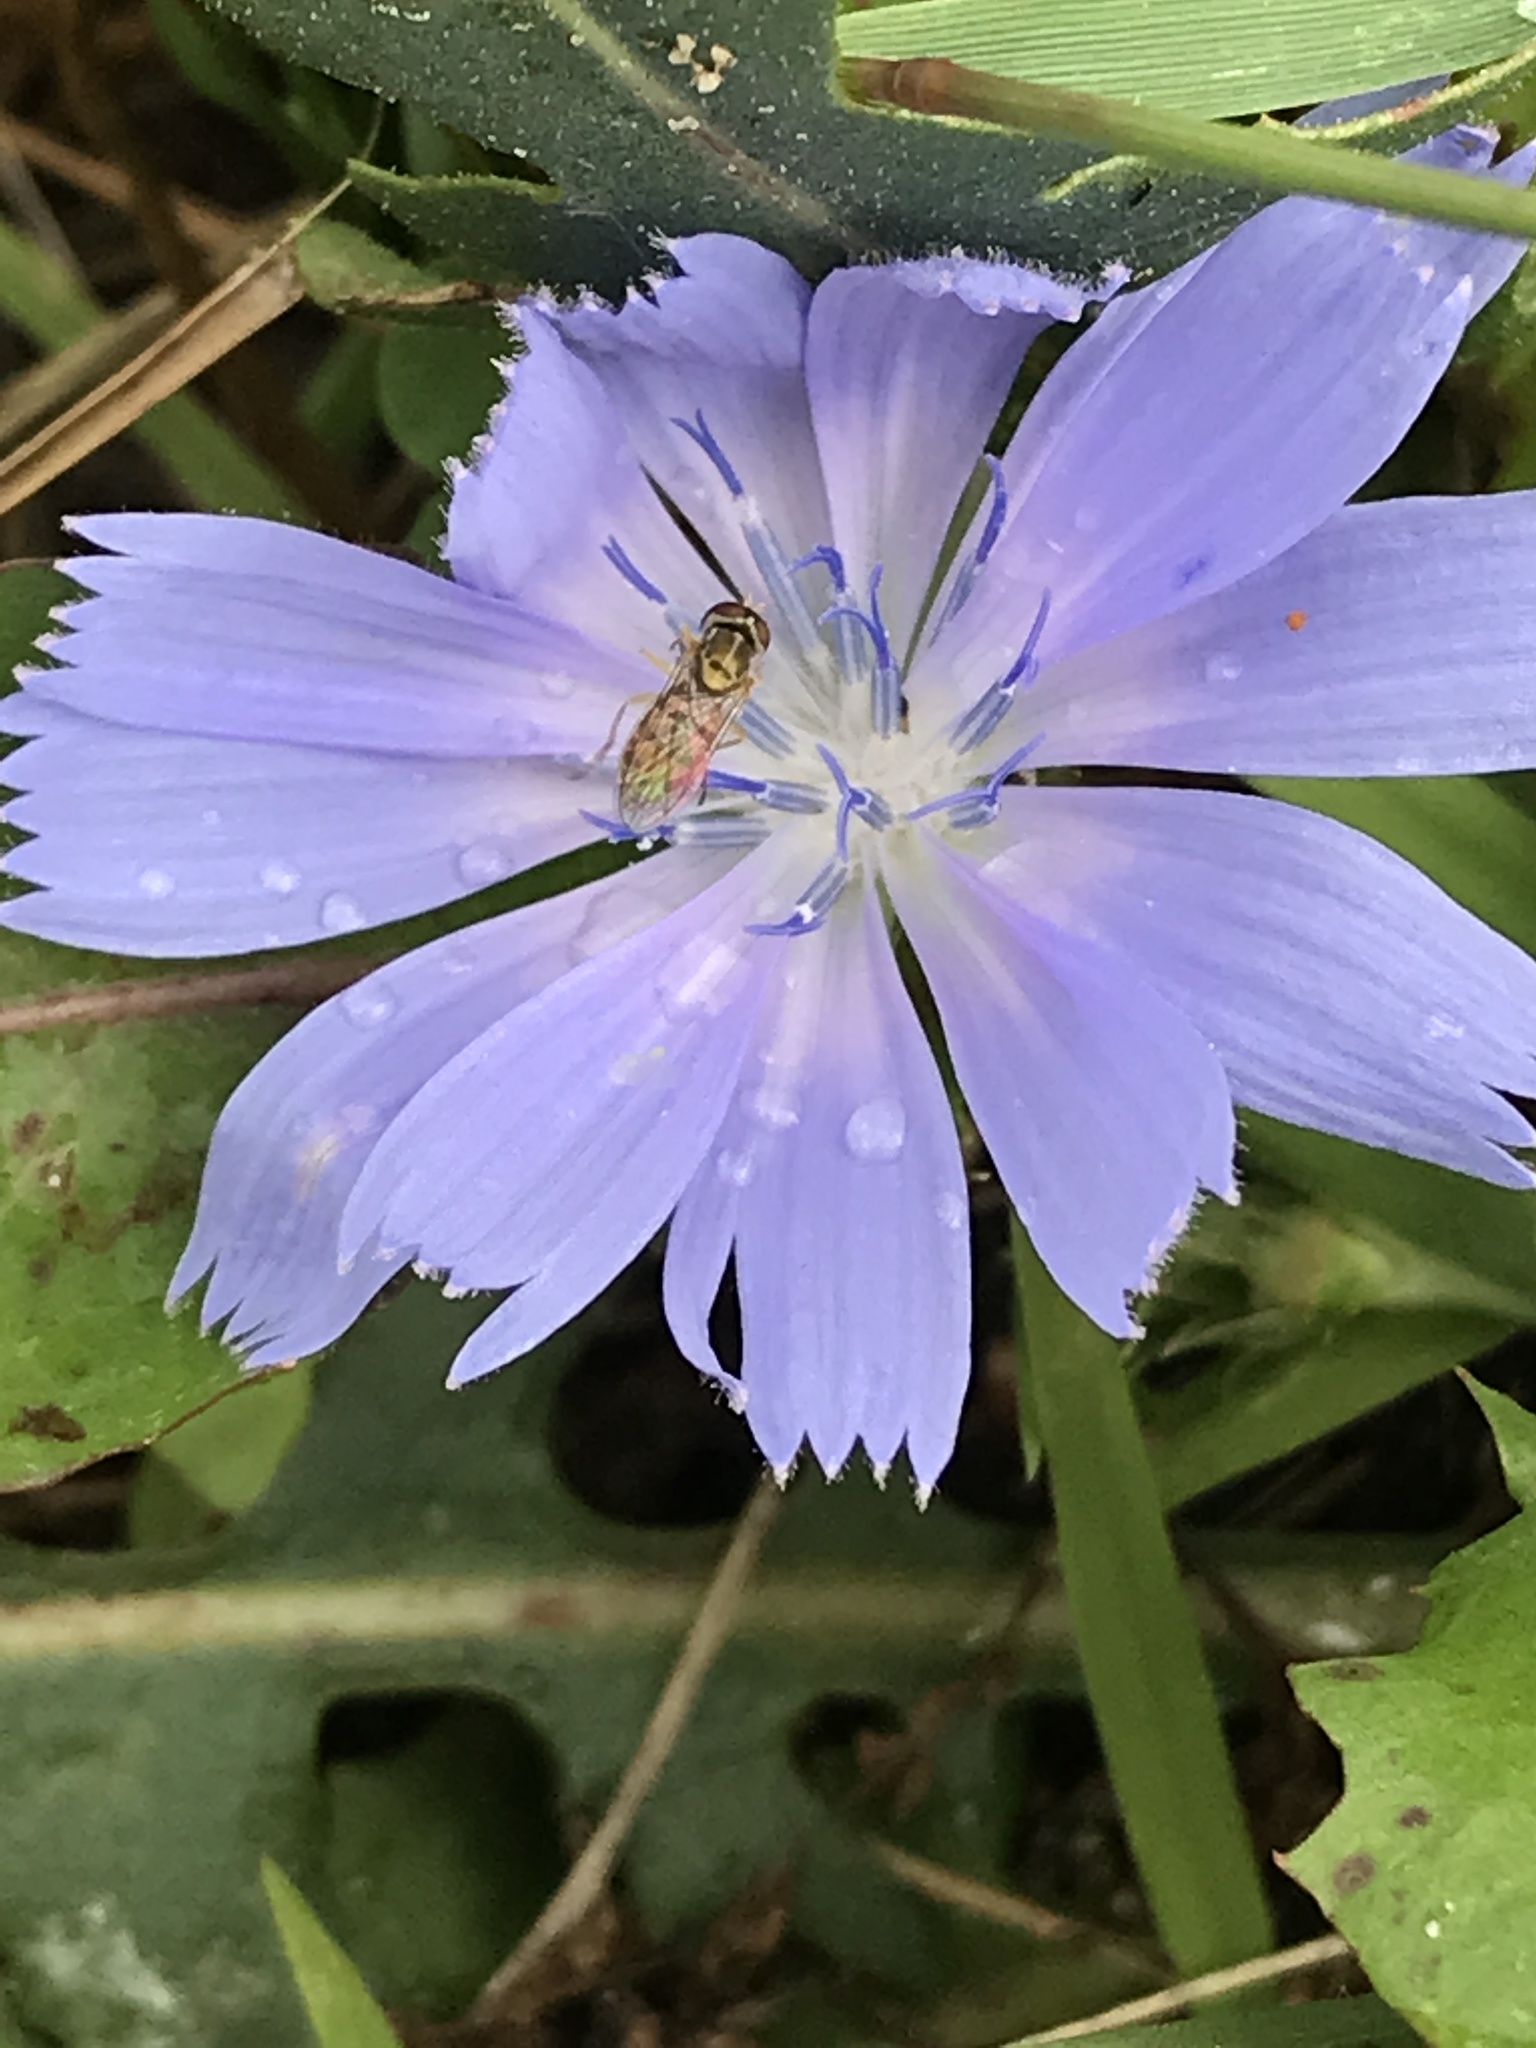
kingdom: Plantae
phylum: Tracheophyta
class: Magnoliopsida
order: Asterales
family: Asteraceae
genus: Cichorium
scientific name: Cichorium intybus
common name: Chicory
